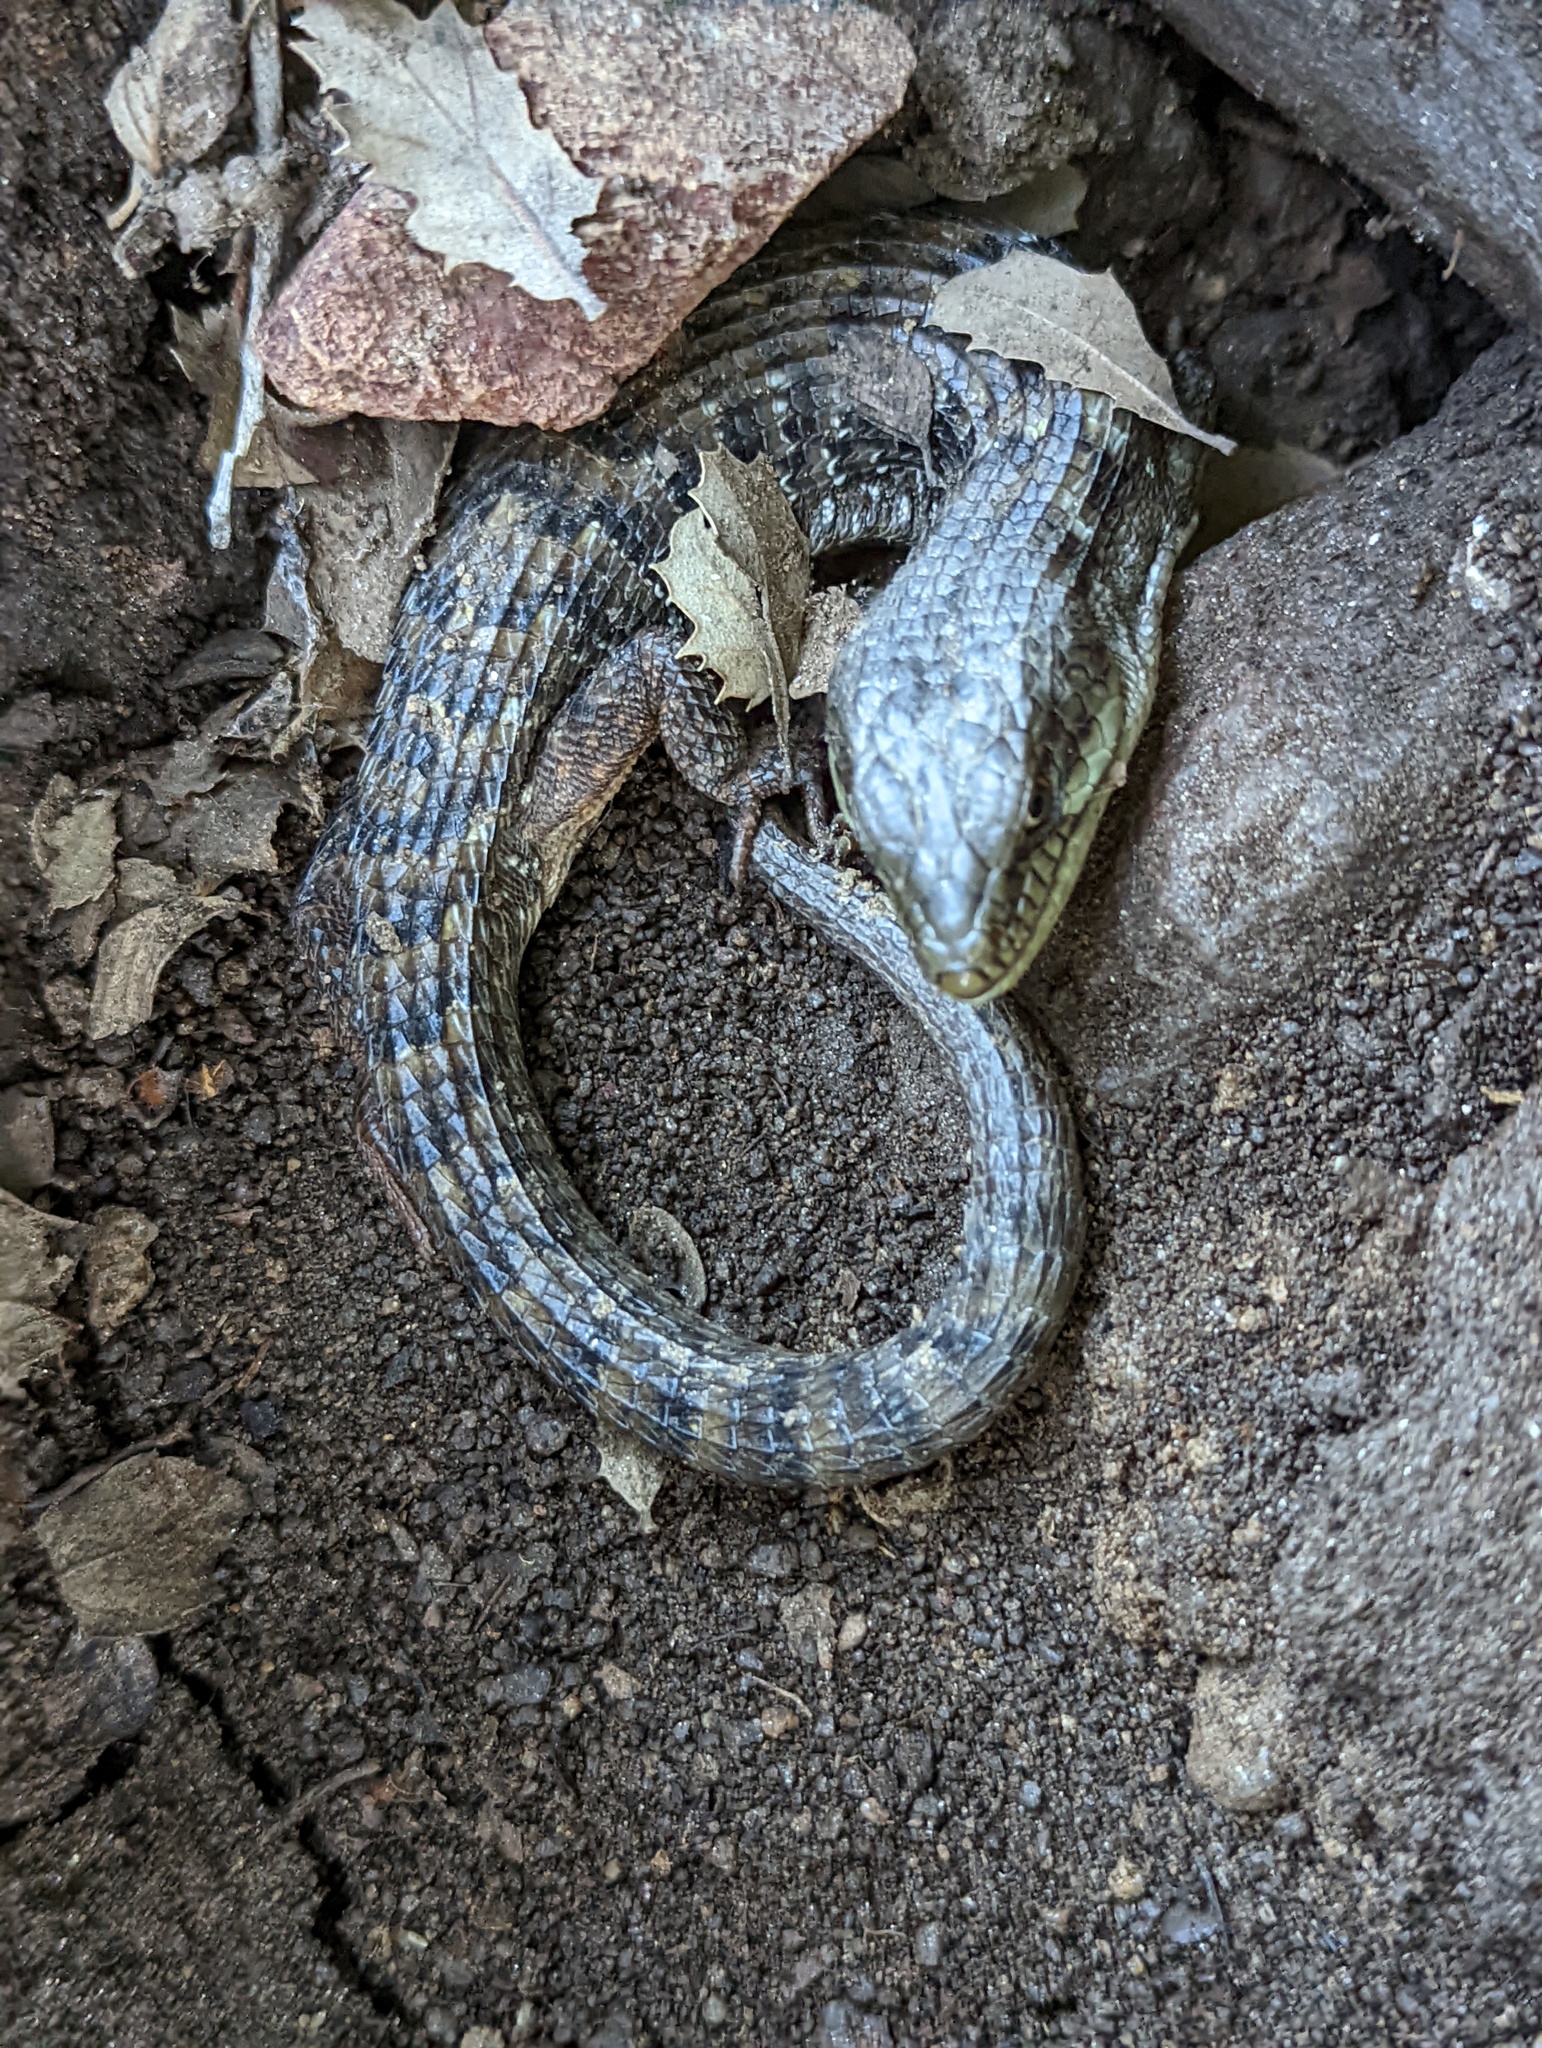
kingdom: Animalia
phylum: Chordata
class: Squamata
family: Anguidae
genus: Elgaria
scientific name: Elgaria multicarinata
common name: Southern alligator lizard
